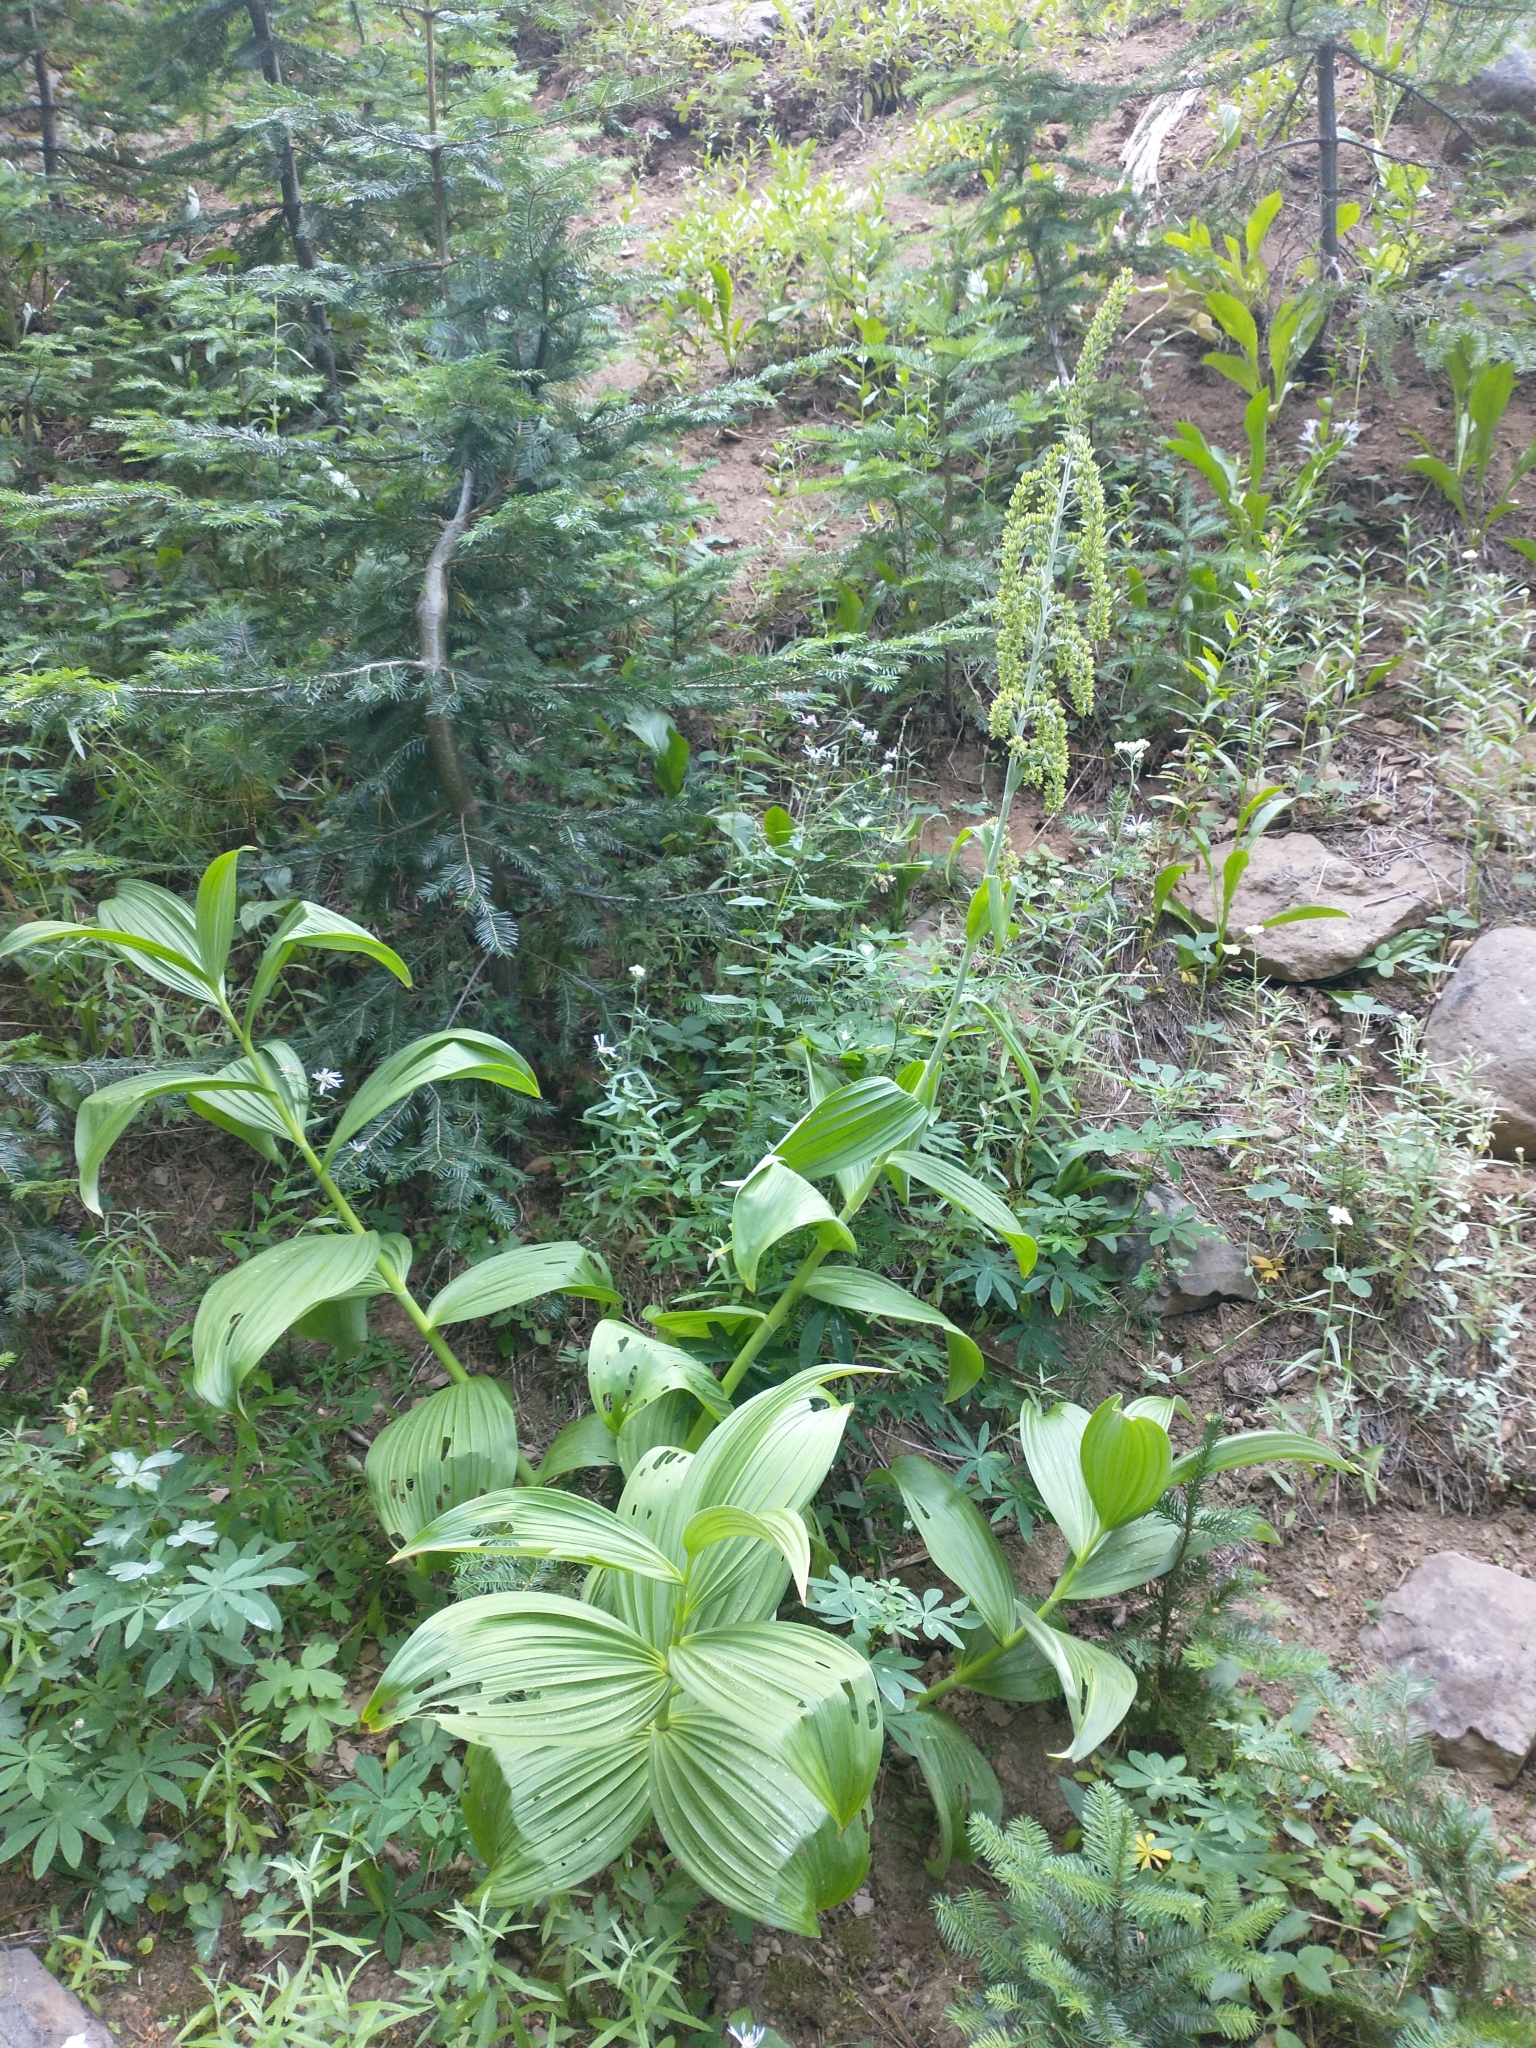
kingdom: Plantae
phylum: Tracheophyta
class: Liliopsida
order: Liliales
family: Melanthiaceae
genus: Veratrum
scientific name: Veratrum viride
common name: American false hellebore
